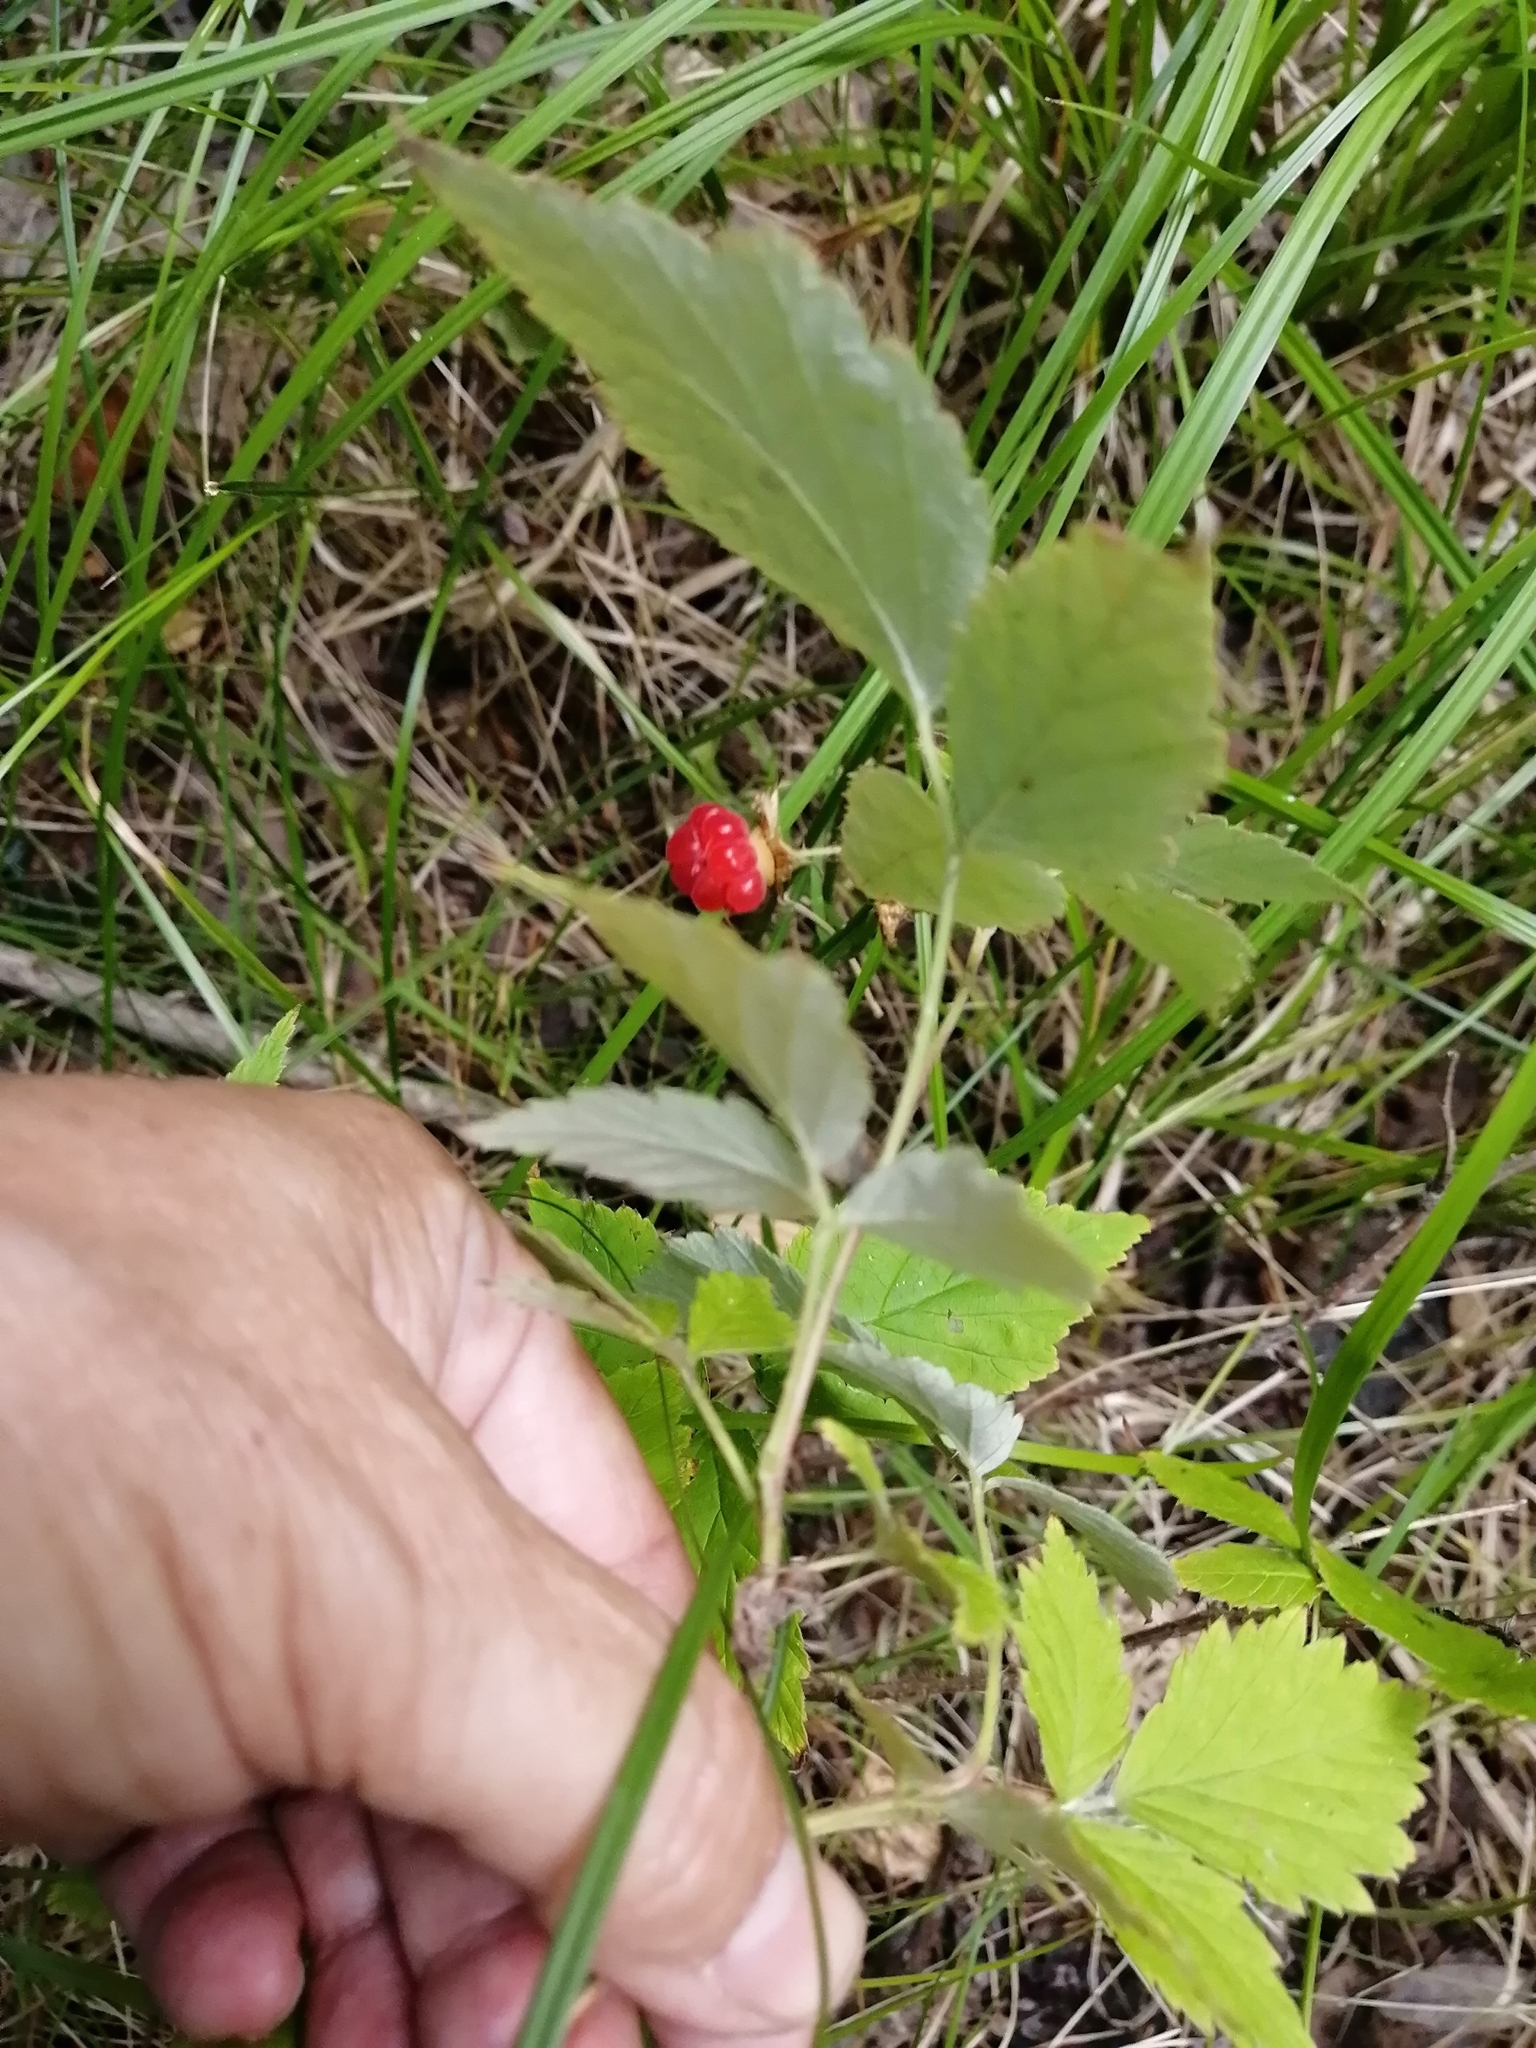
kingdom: Plantae
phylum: Tracheophyta
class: Magnoliopsida
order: Rosales
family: Rosaceae
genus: Rubus
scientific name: Rubus idaeus
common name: Raspberry
